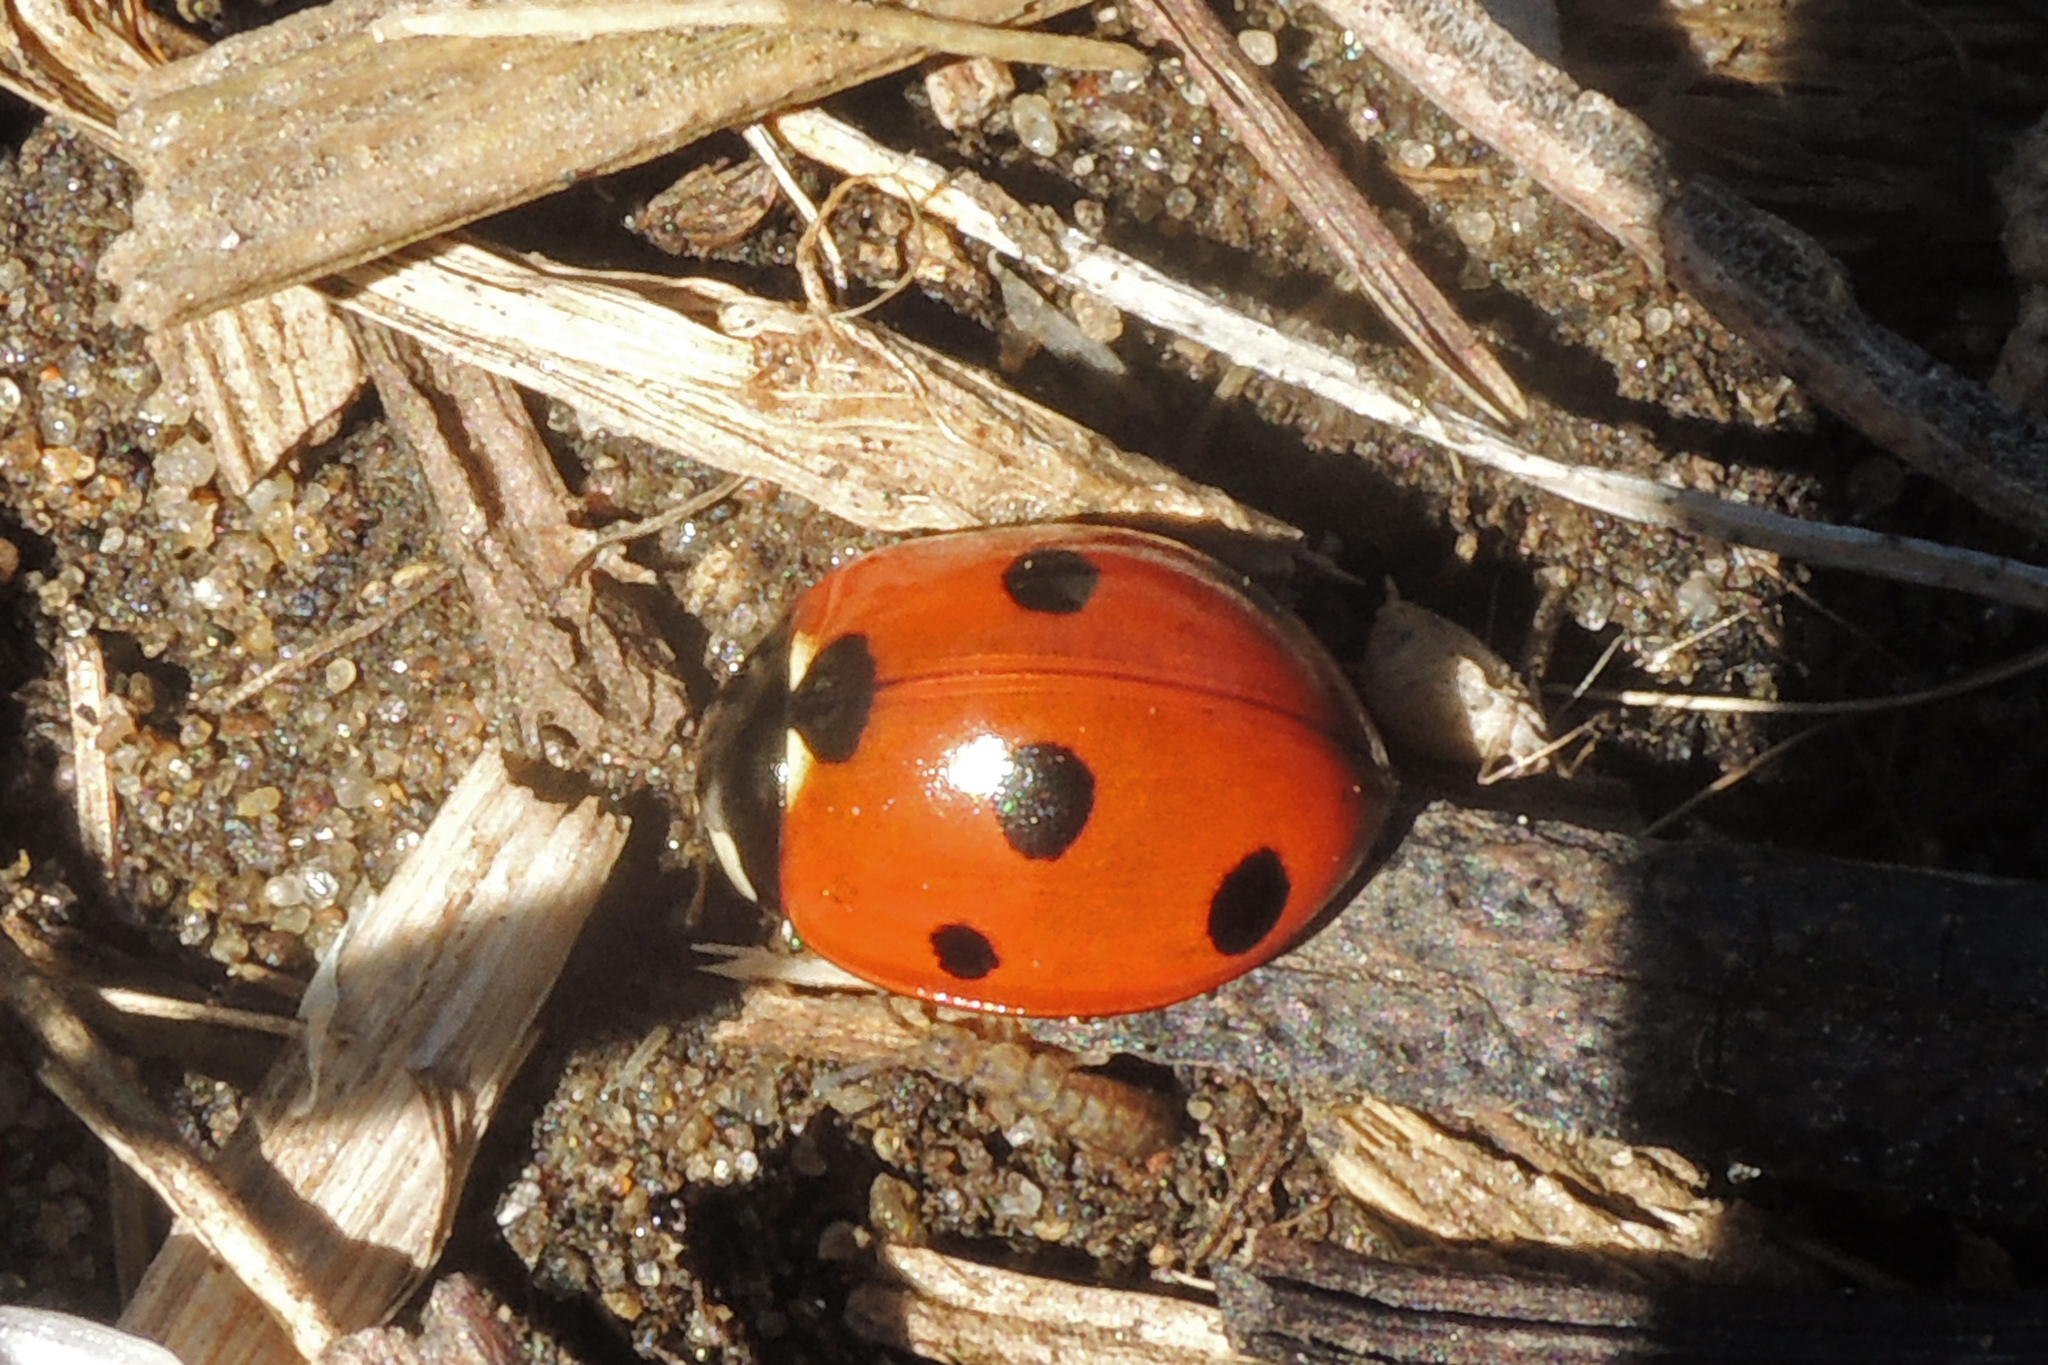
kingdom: Animalia
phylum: Arthropoda
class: Insecta
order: Coleoptera
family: Coccinellidae
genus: Coccinella
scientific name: Coccinella septempunctata
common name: Sevenspotted lady beetle
